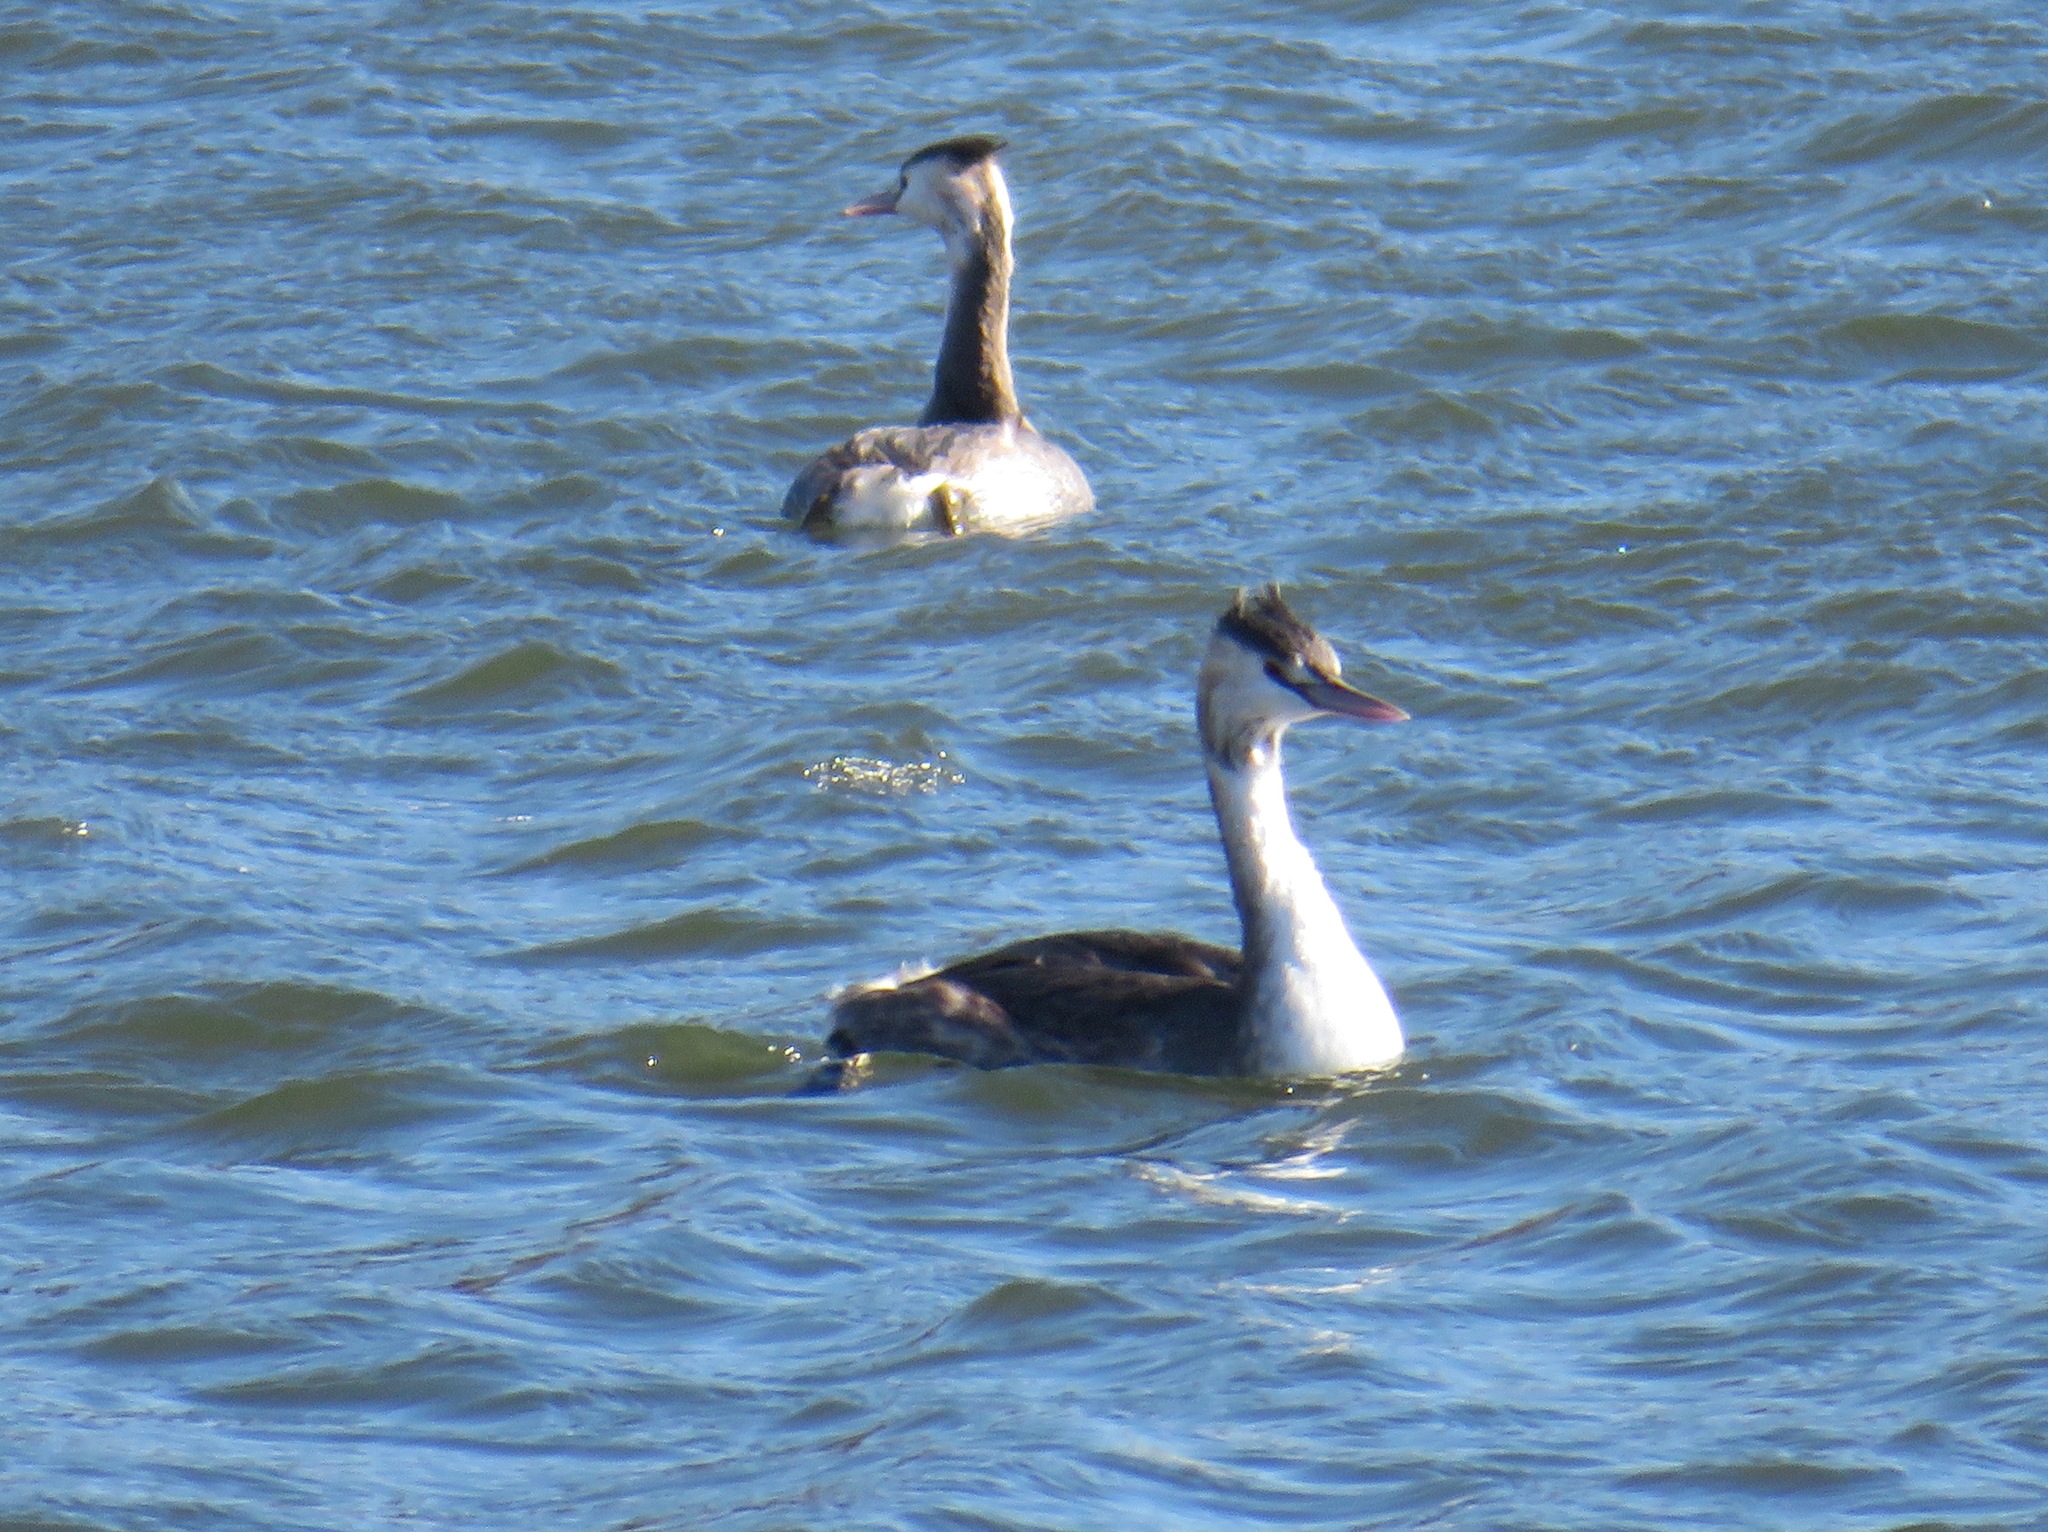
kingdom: Animalia
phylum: Chordata
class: Aves
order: Podicipediformes
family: Podicipedidae
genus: Podiceps
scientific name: Podiceps cristatus
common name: Great crested grebe
